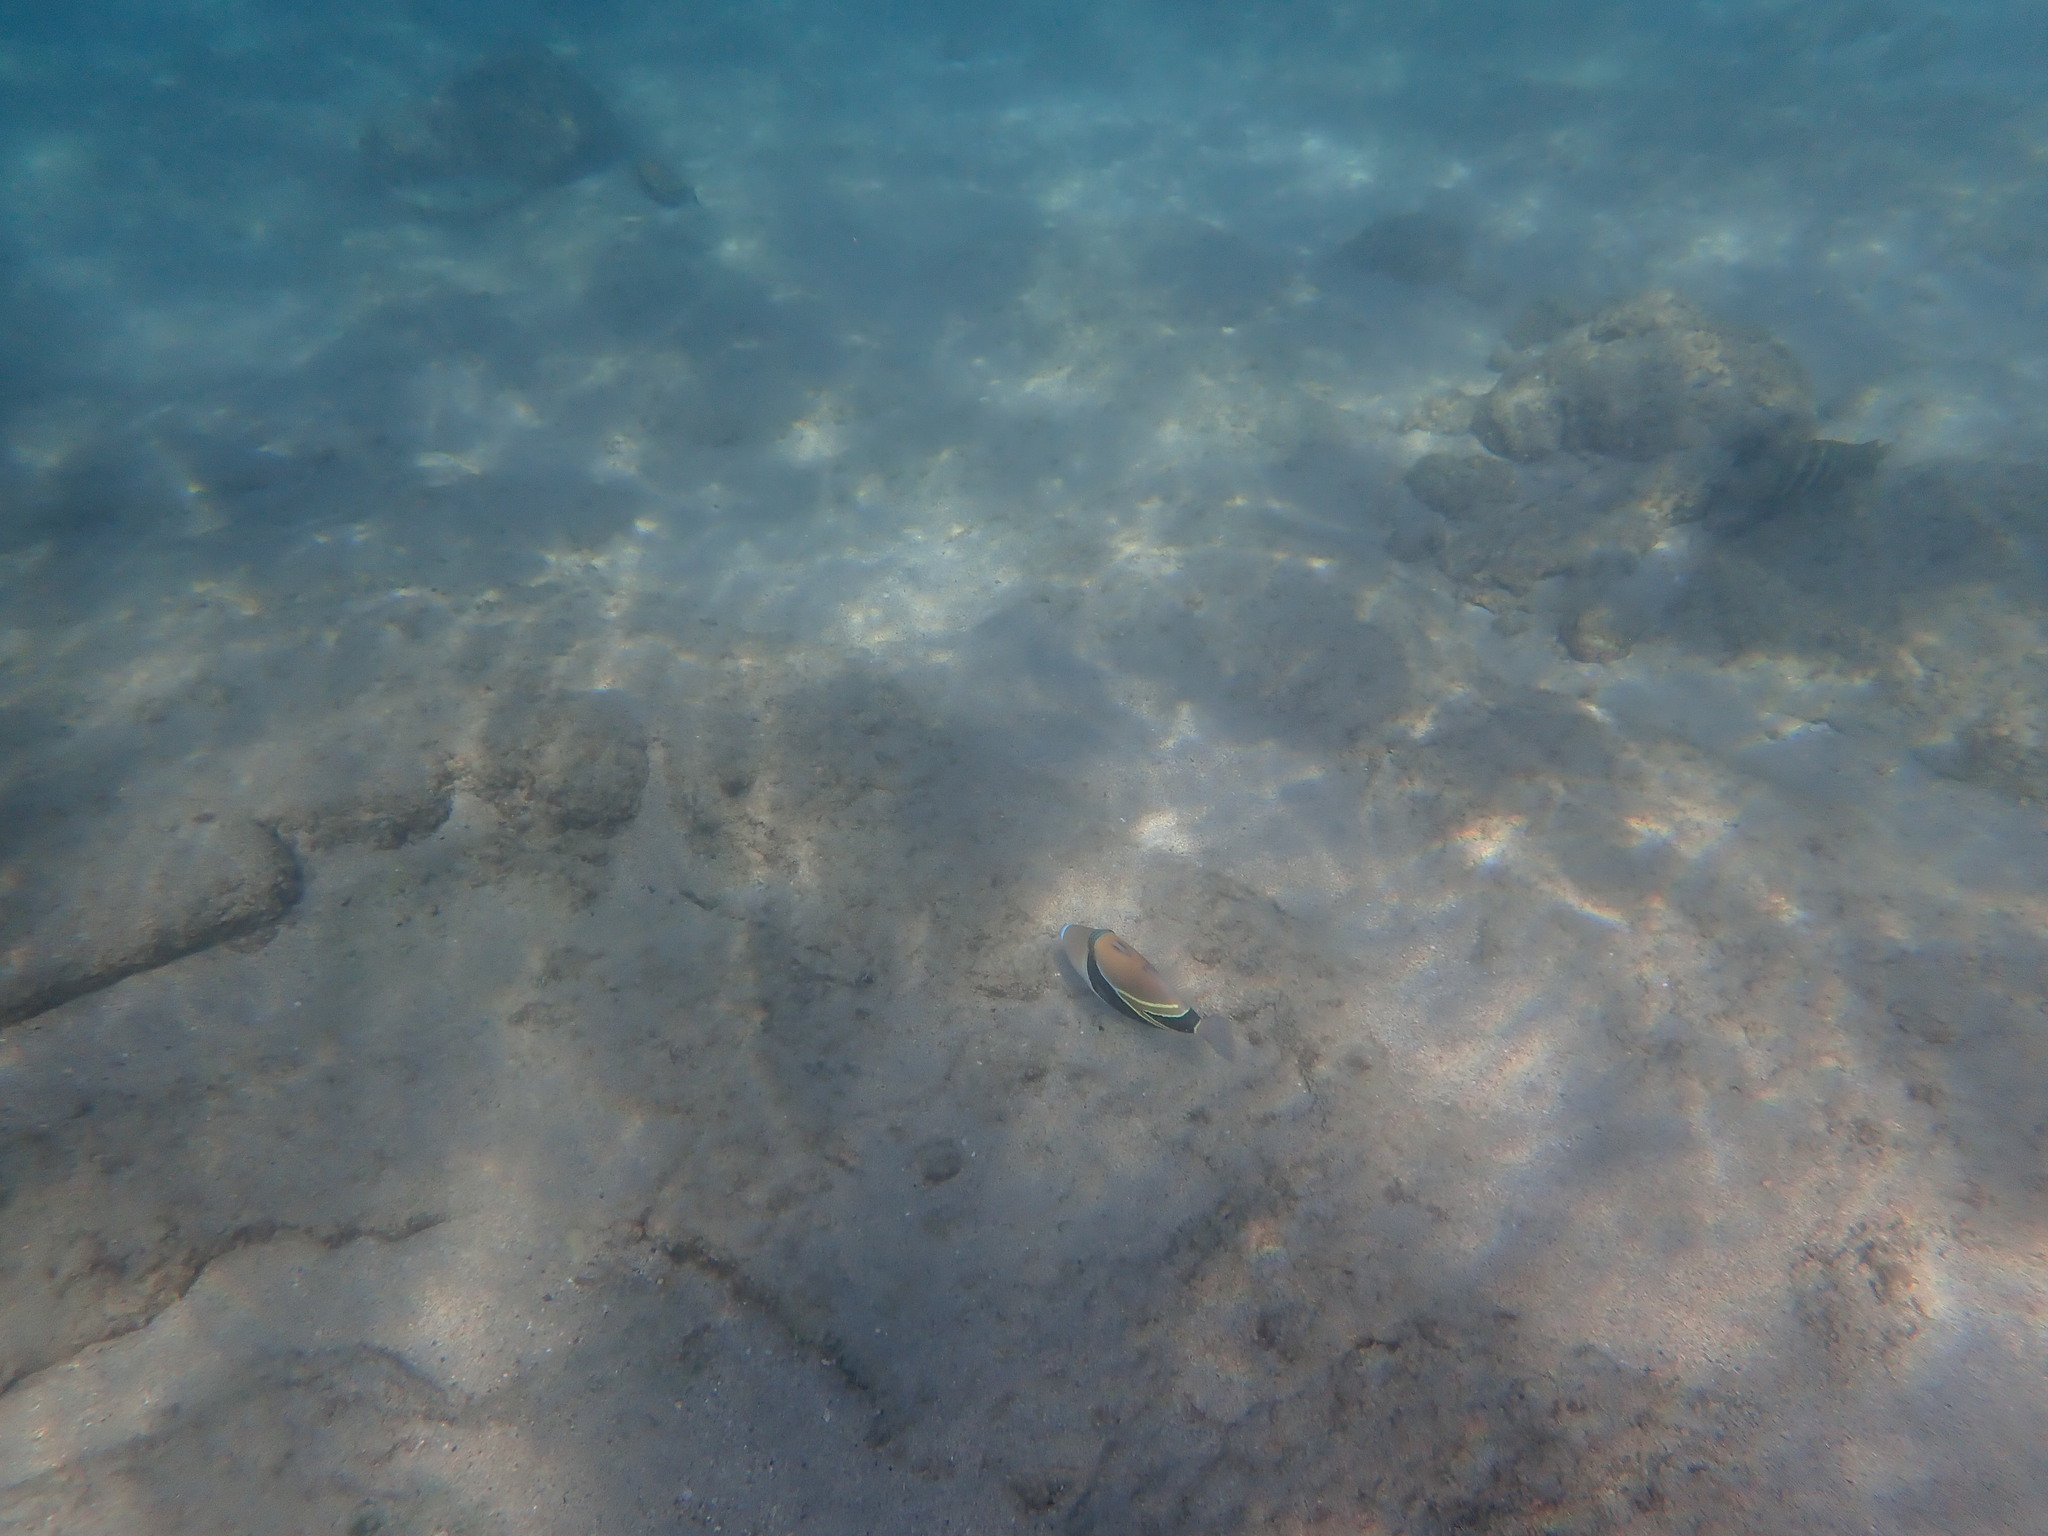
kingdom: Animalia
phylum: Chordata
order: Tetraodontiformes
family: Balistidae
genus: Rhinecanthus
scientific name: Rhinecanthus rectangulus
